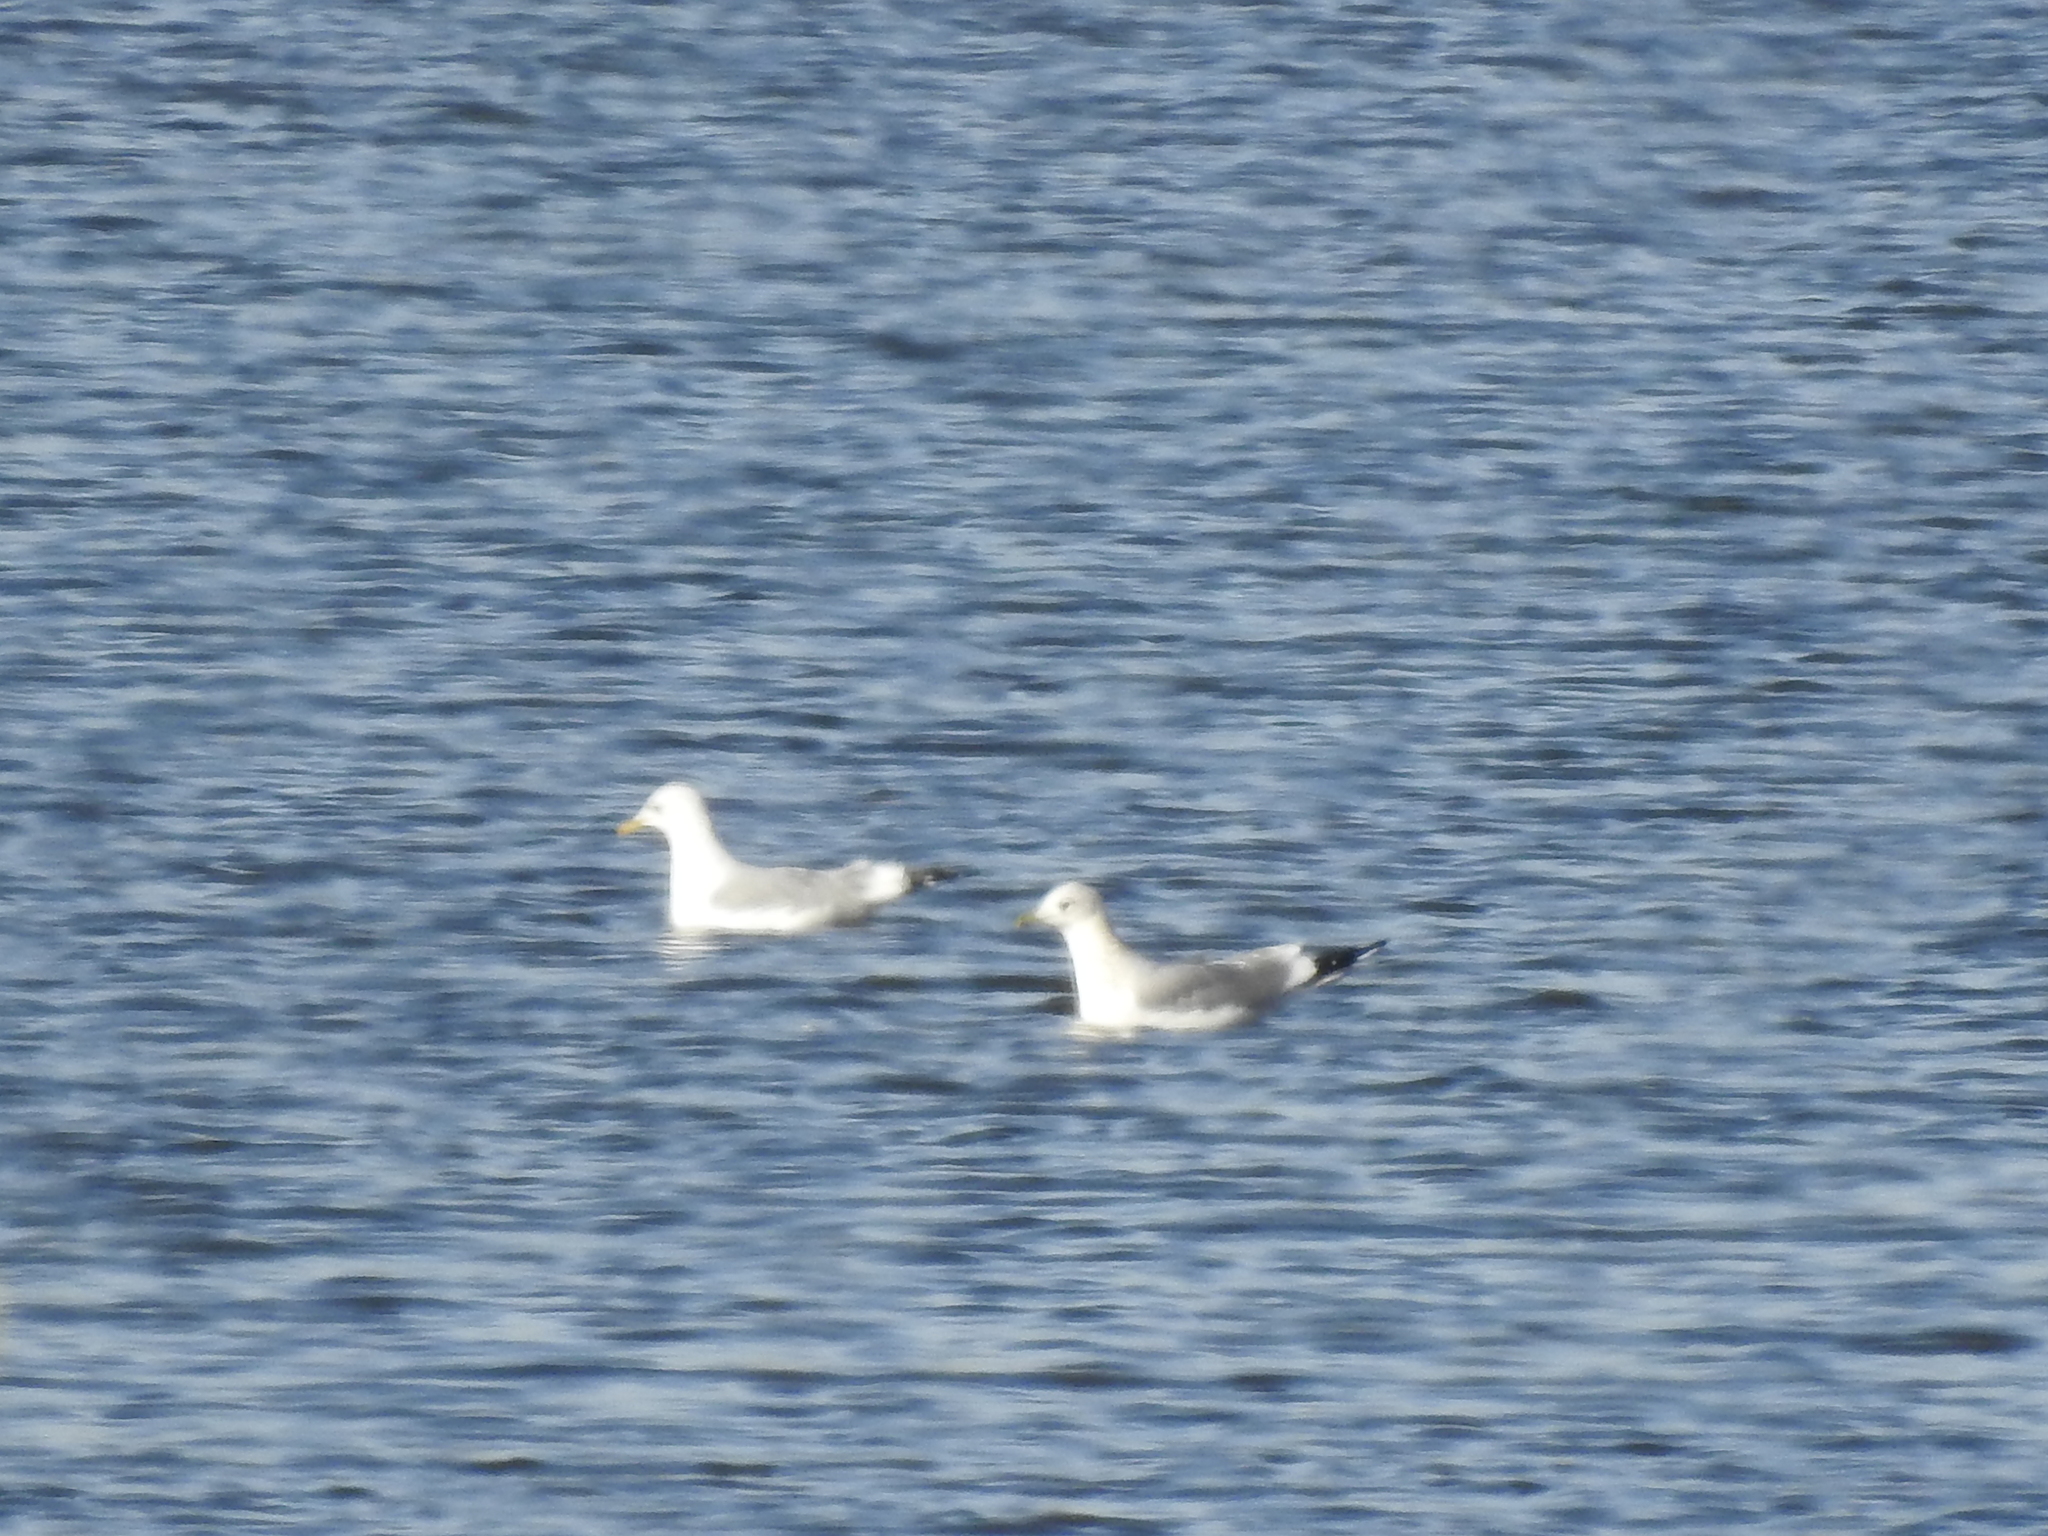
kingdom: Animalia
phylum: Chordata
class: Aves
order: Charadriiformes
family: Laridae
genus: Larus
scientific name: Larus canus
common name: Mew gull
